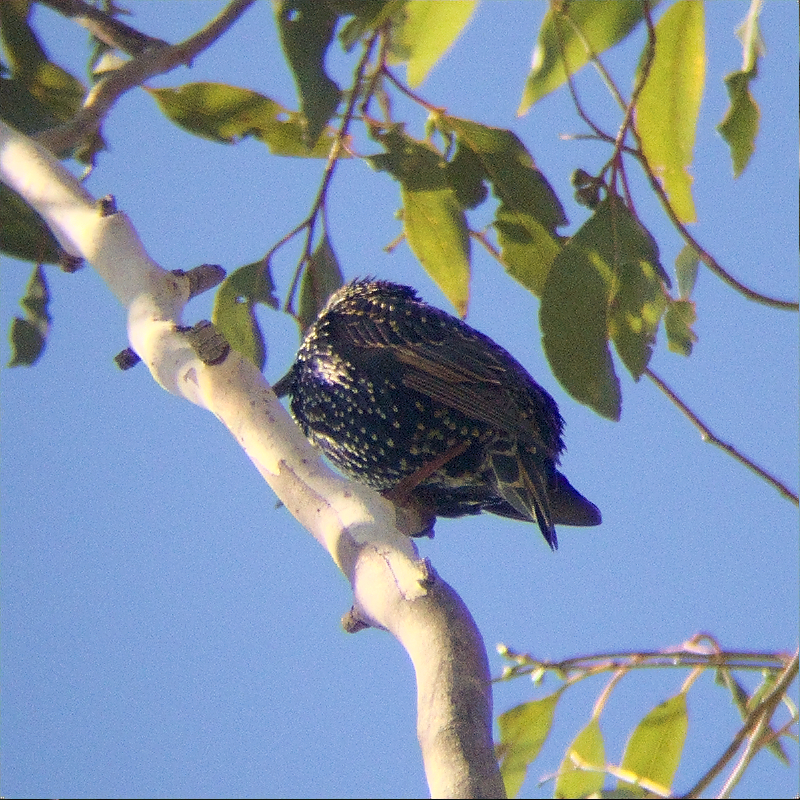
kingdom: Animalia
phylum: Chordata
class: Aves
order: Passeriformes
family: Sturnidae
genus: Sturnus
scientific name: Sturnus vulgaris
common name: Common starling
